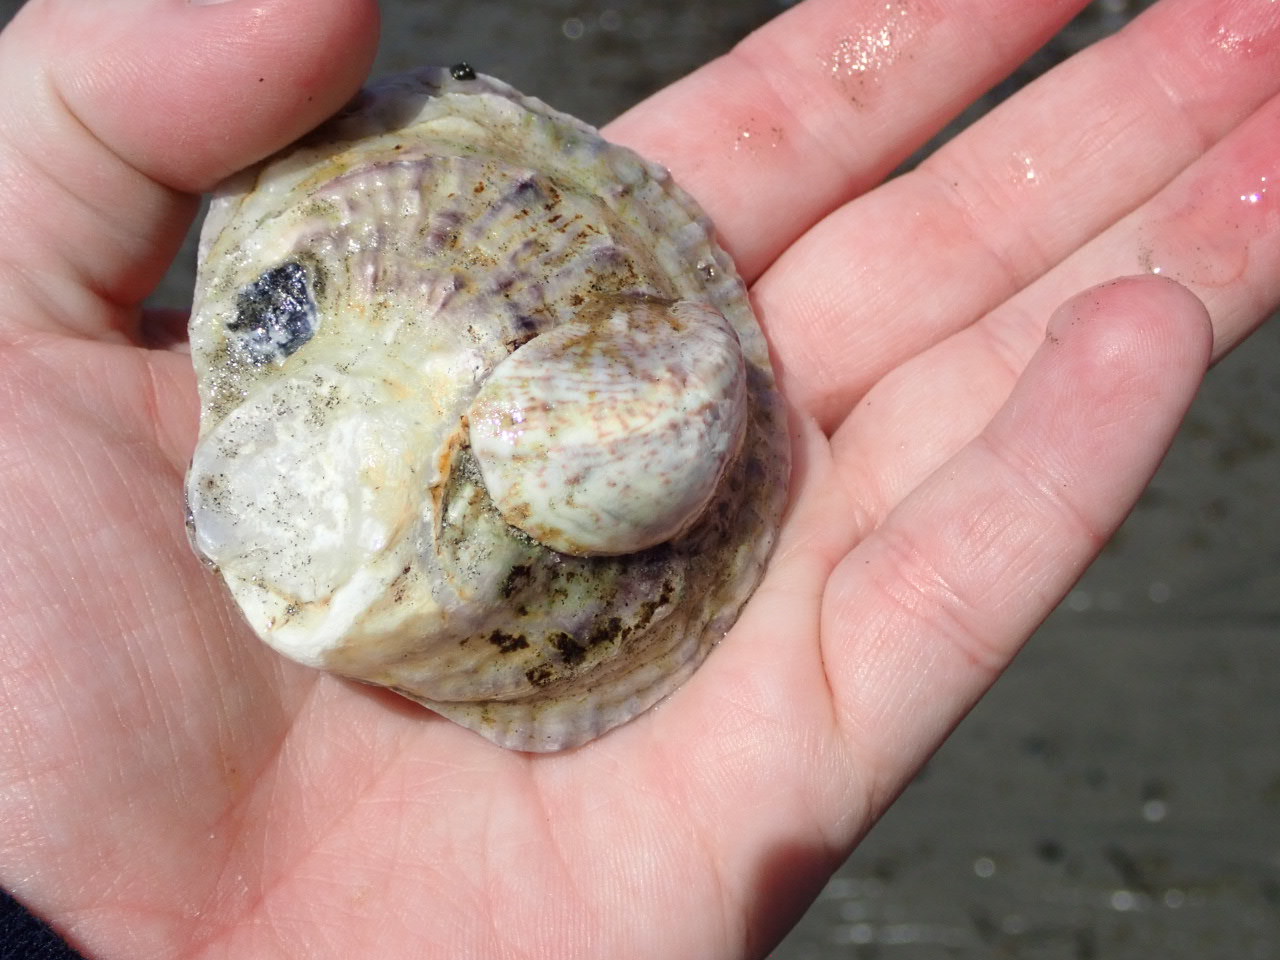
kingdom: Animalia
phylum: Mollusca
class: Gastropoda
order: Littorinimorpha
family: Calyptraeidae
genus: Crepidula
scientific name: Crepidula fornicata
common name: Slipper limpet
